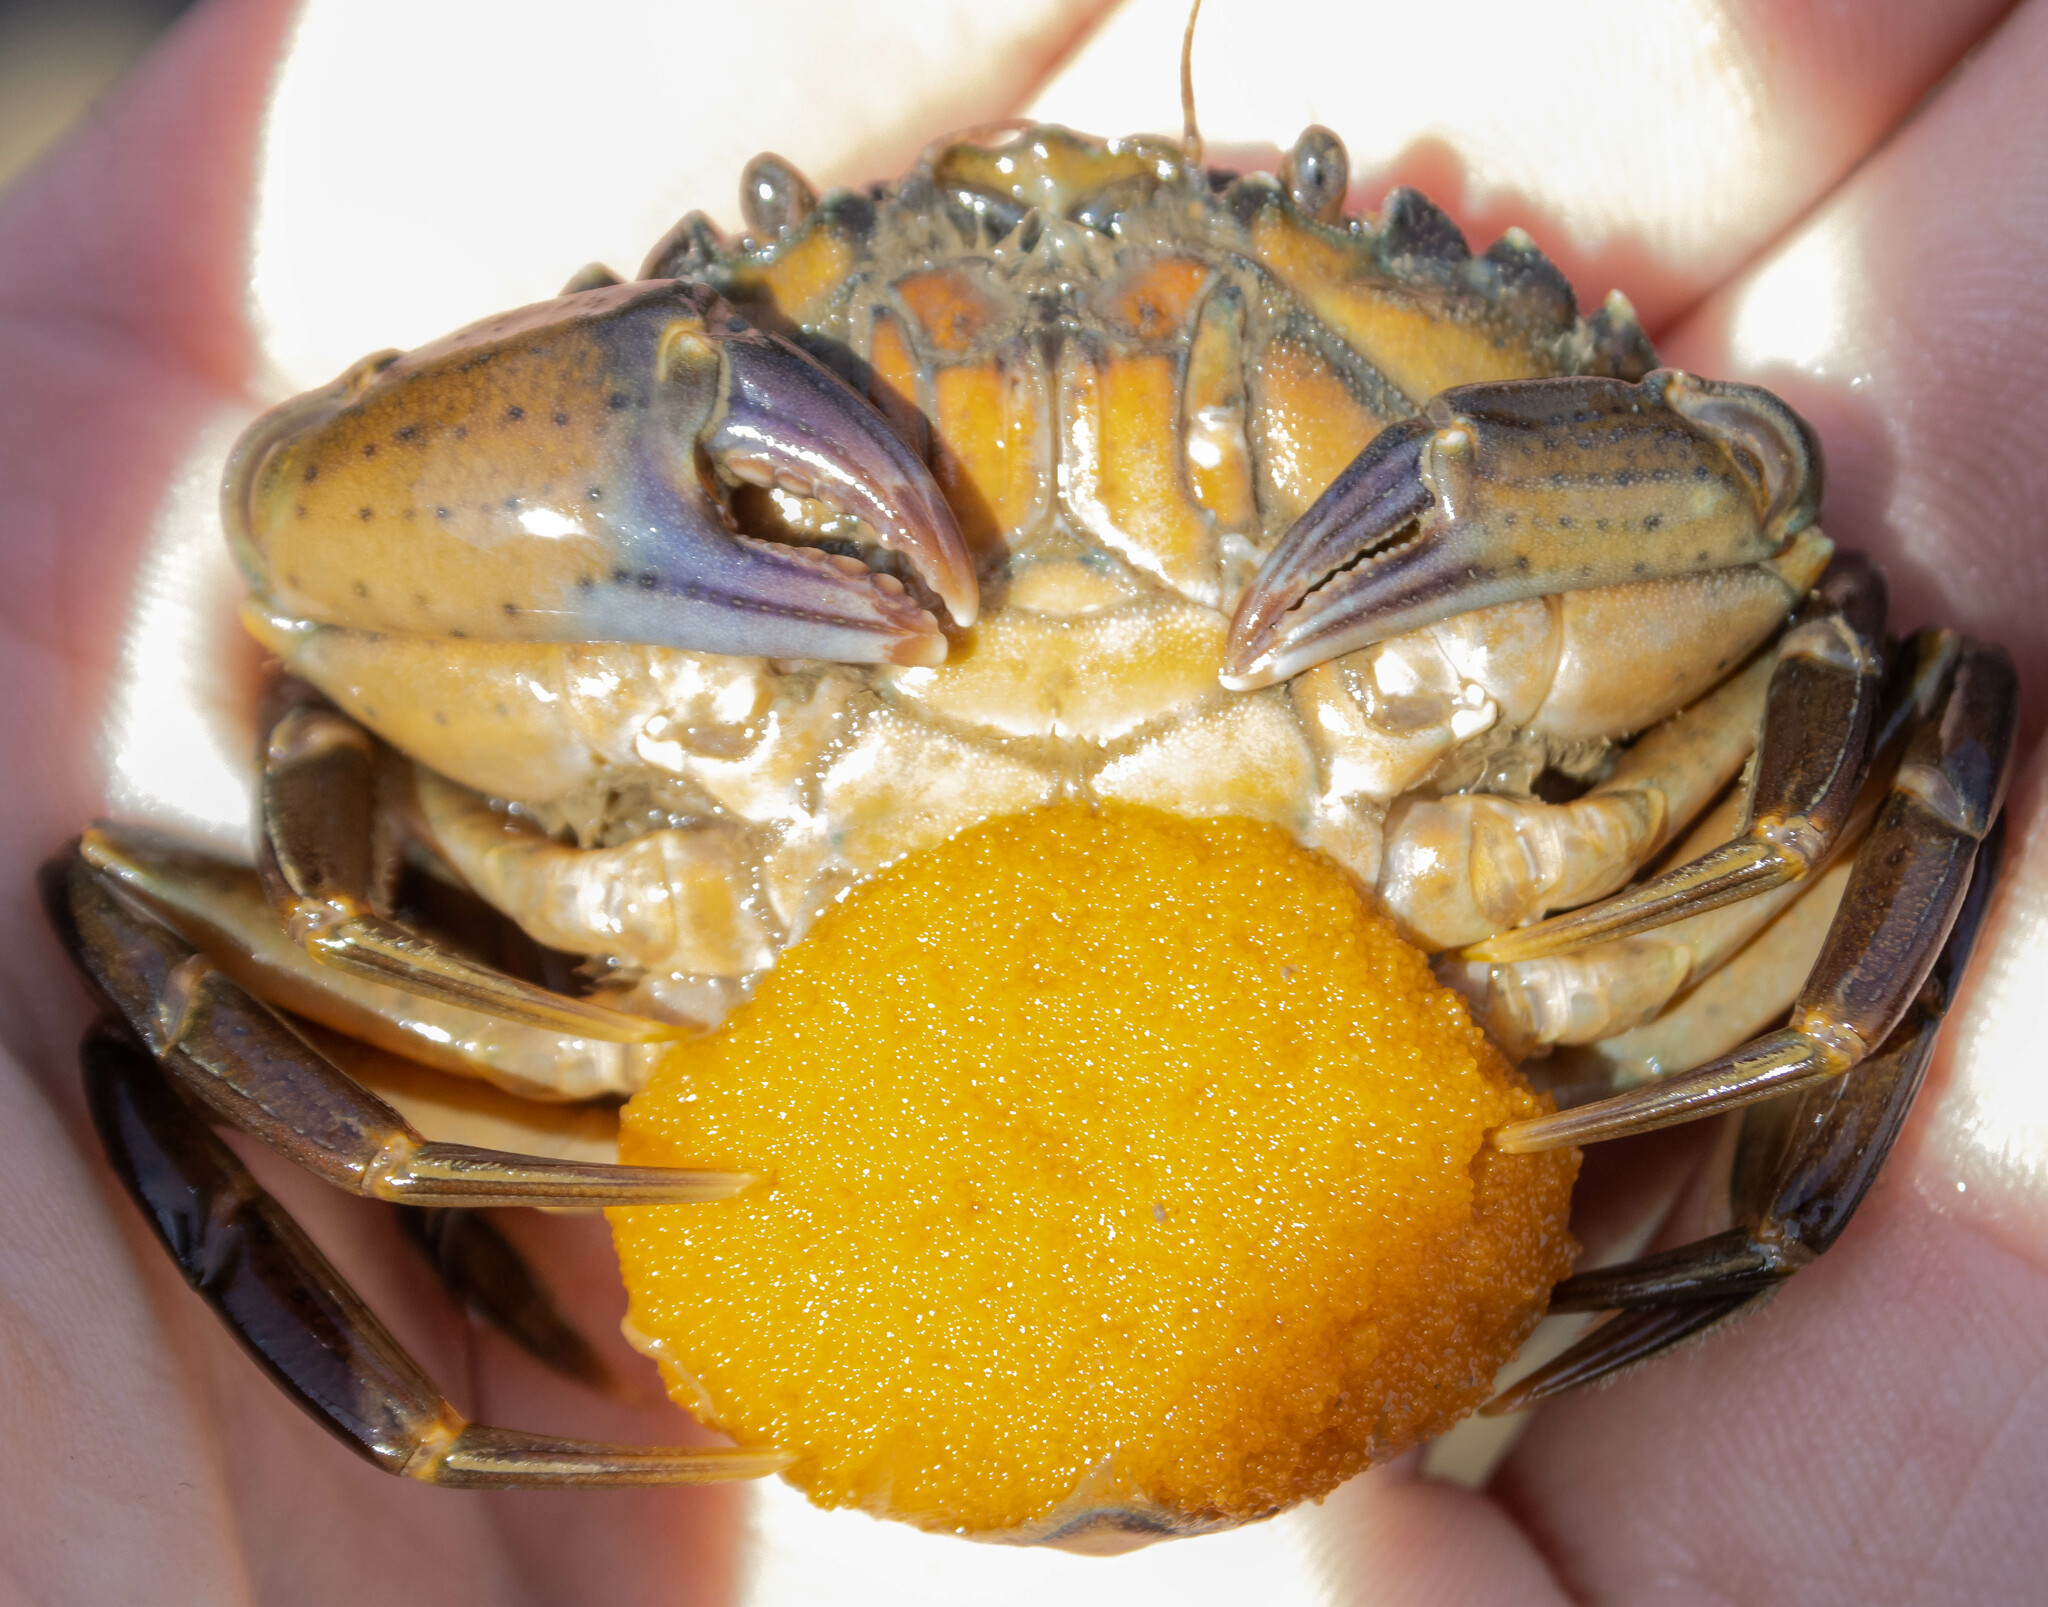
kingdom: Animalia
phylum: Arthropoda
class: Malacostraca
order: Decapoda
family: Carcinidae
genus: Carcinus
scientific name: Carcinus maenas
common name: European green crab
